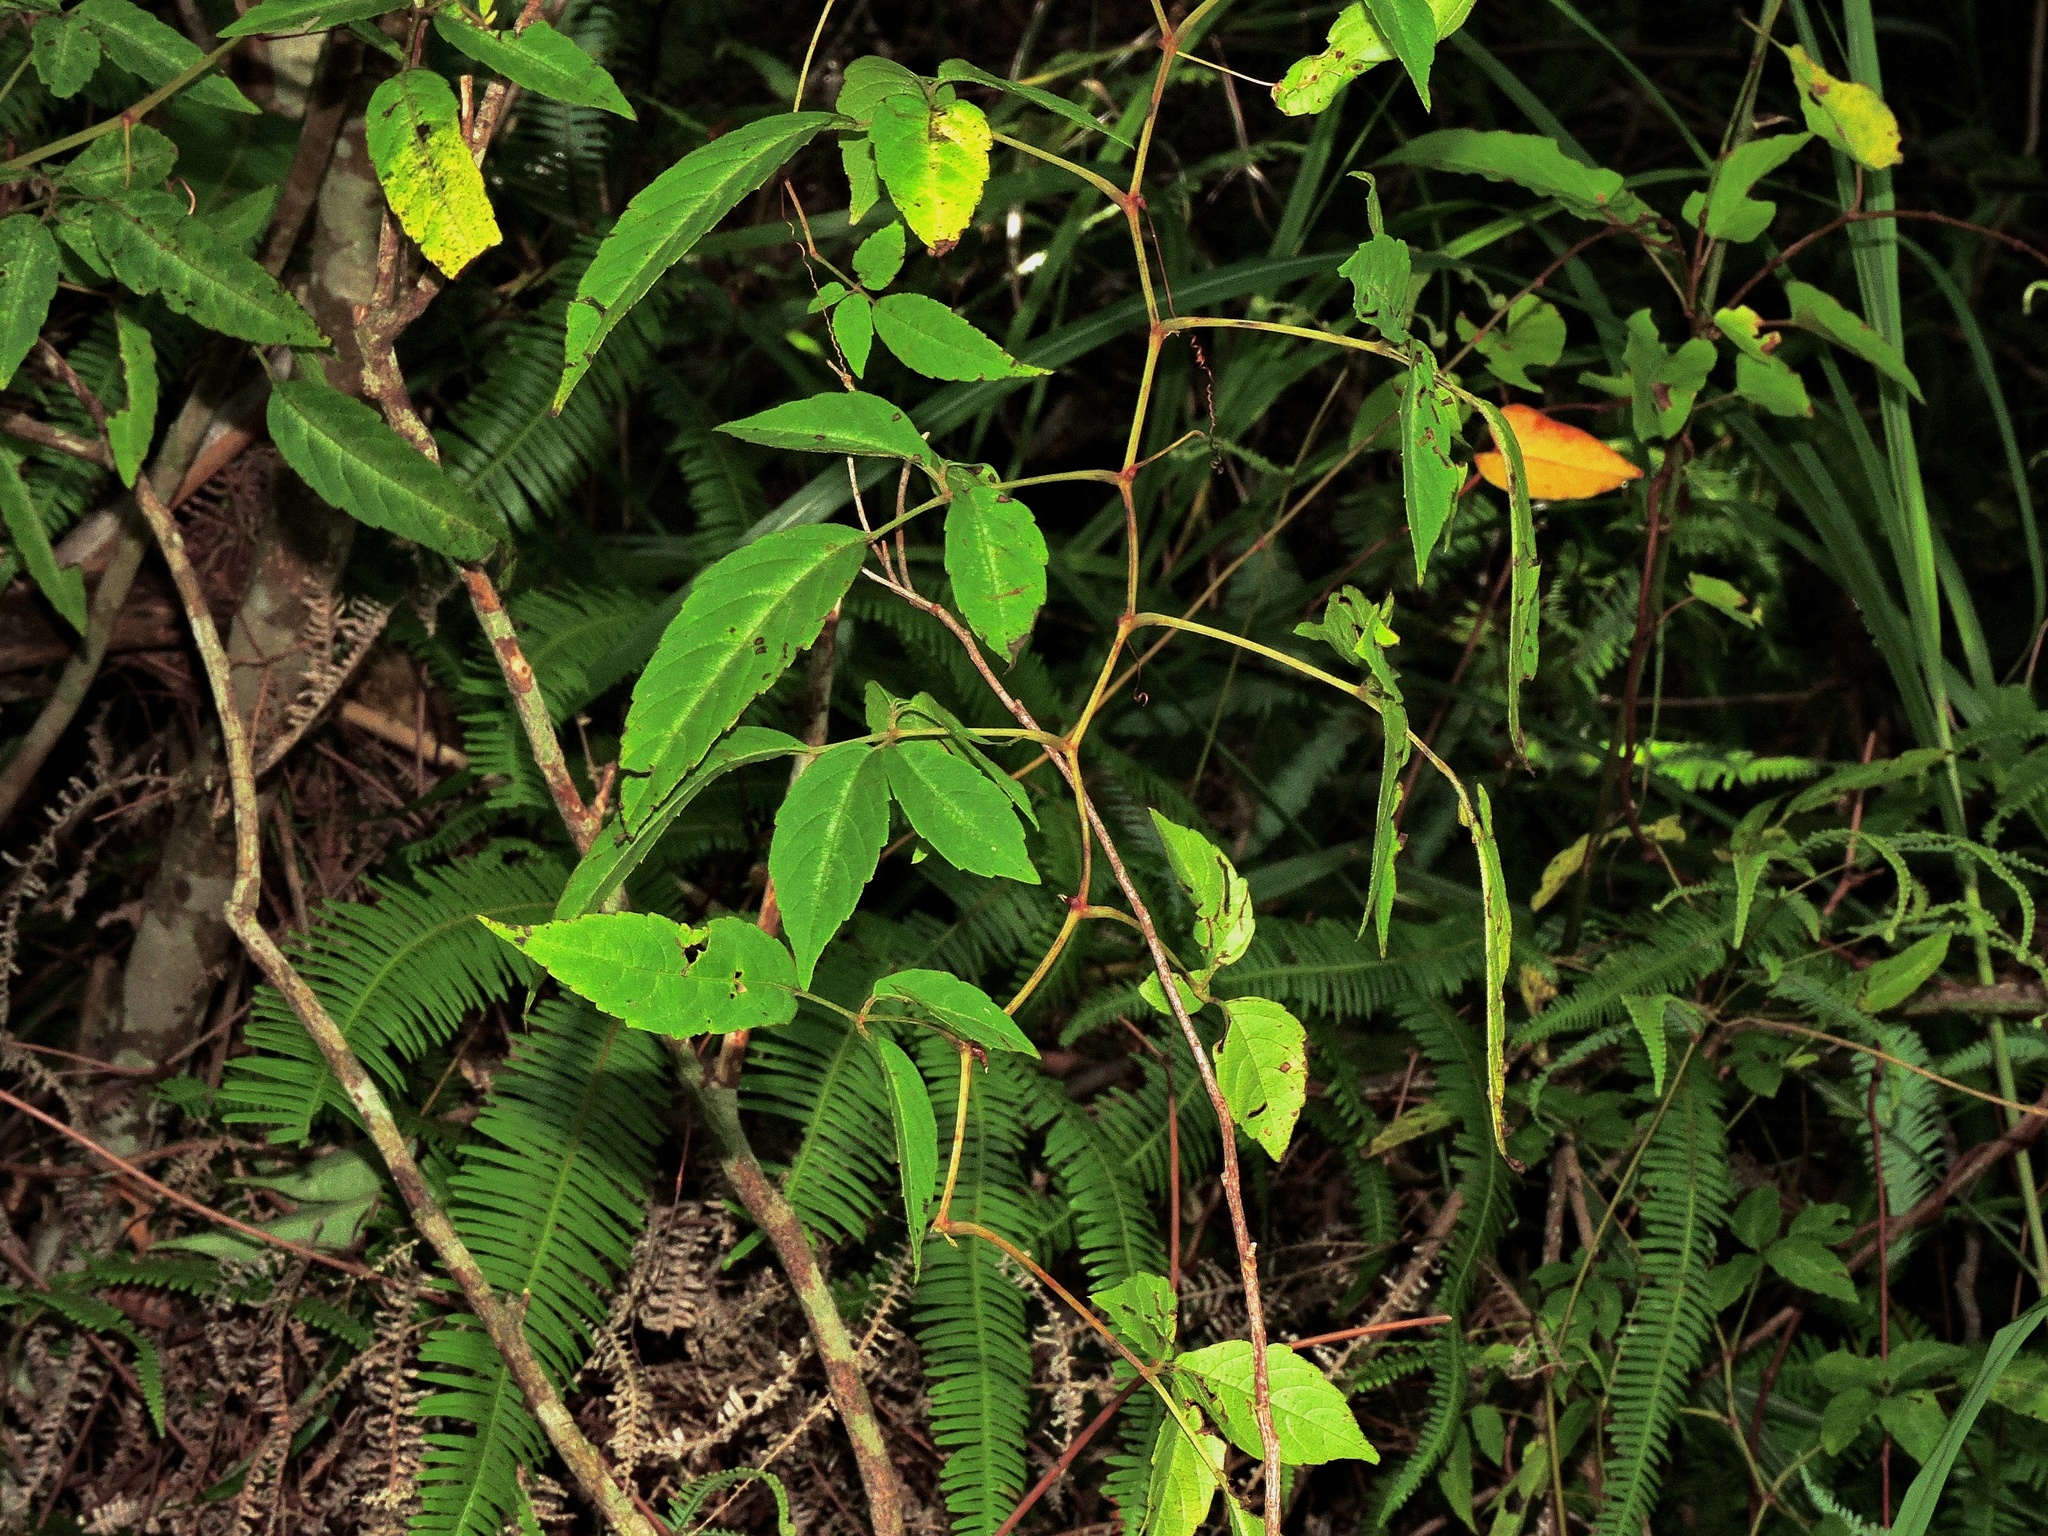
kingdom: Plantae
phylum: Tracheophyta
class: Magnoliopsida
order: Vitales
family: Vitaceae
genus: Pseudocayratia
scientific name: Pseudocayratia pengiana
